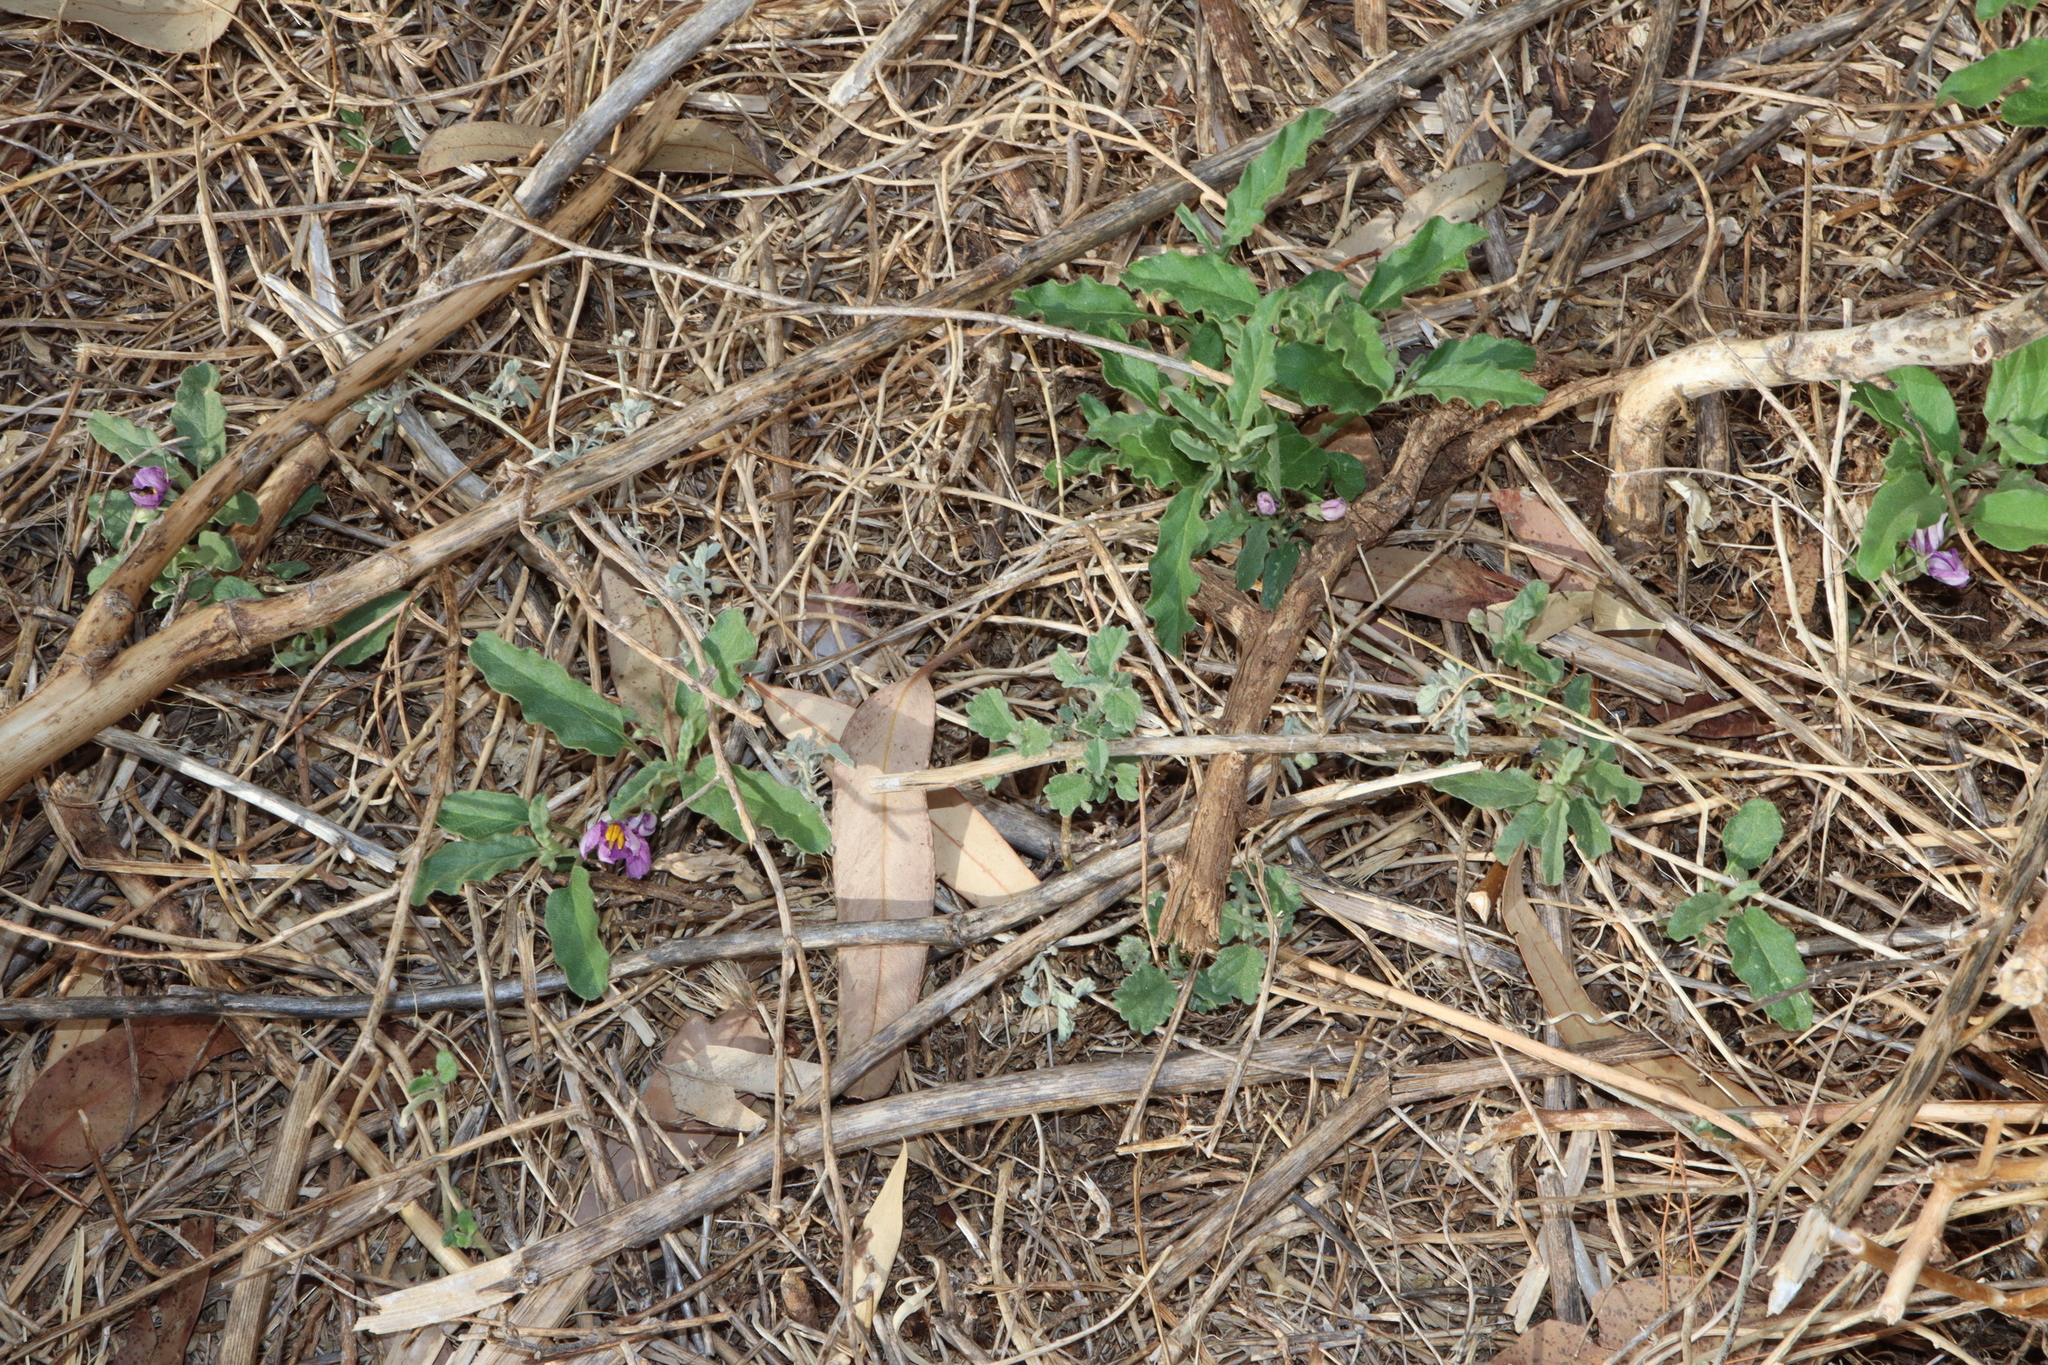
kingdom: Plantae
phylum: Tracheophyta
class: Magnoliopsida
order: Solanales
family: Solanaceae
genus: Solanum
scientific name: Solanum esuriale
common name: Wild tomato
